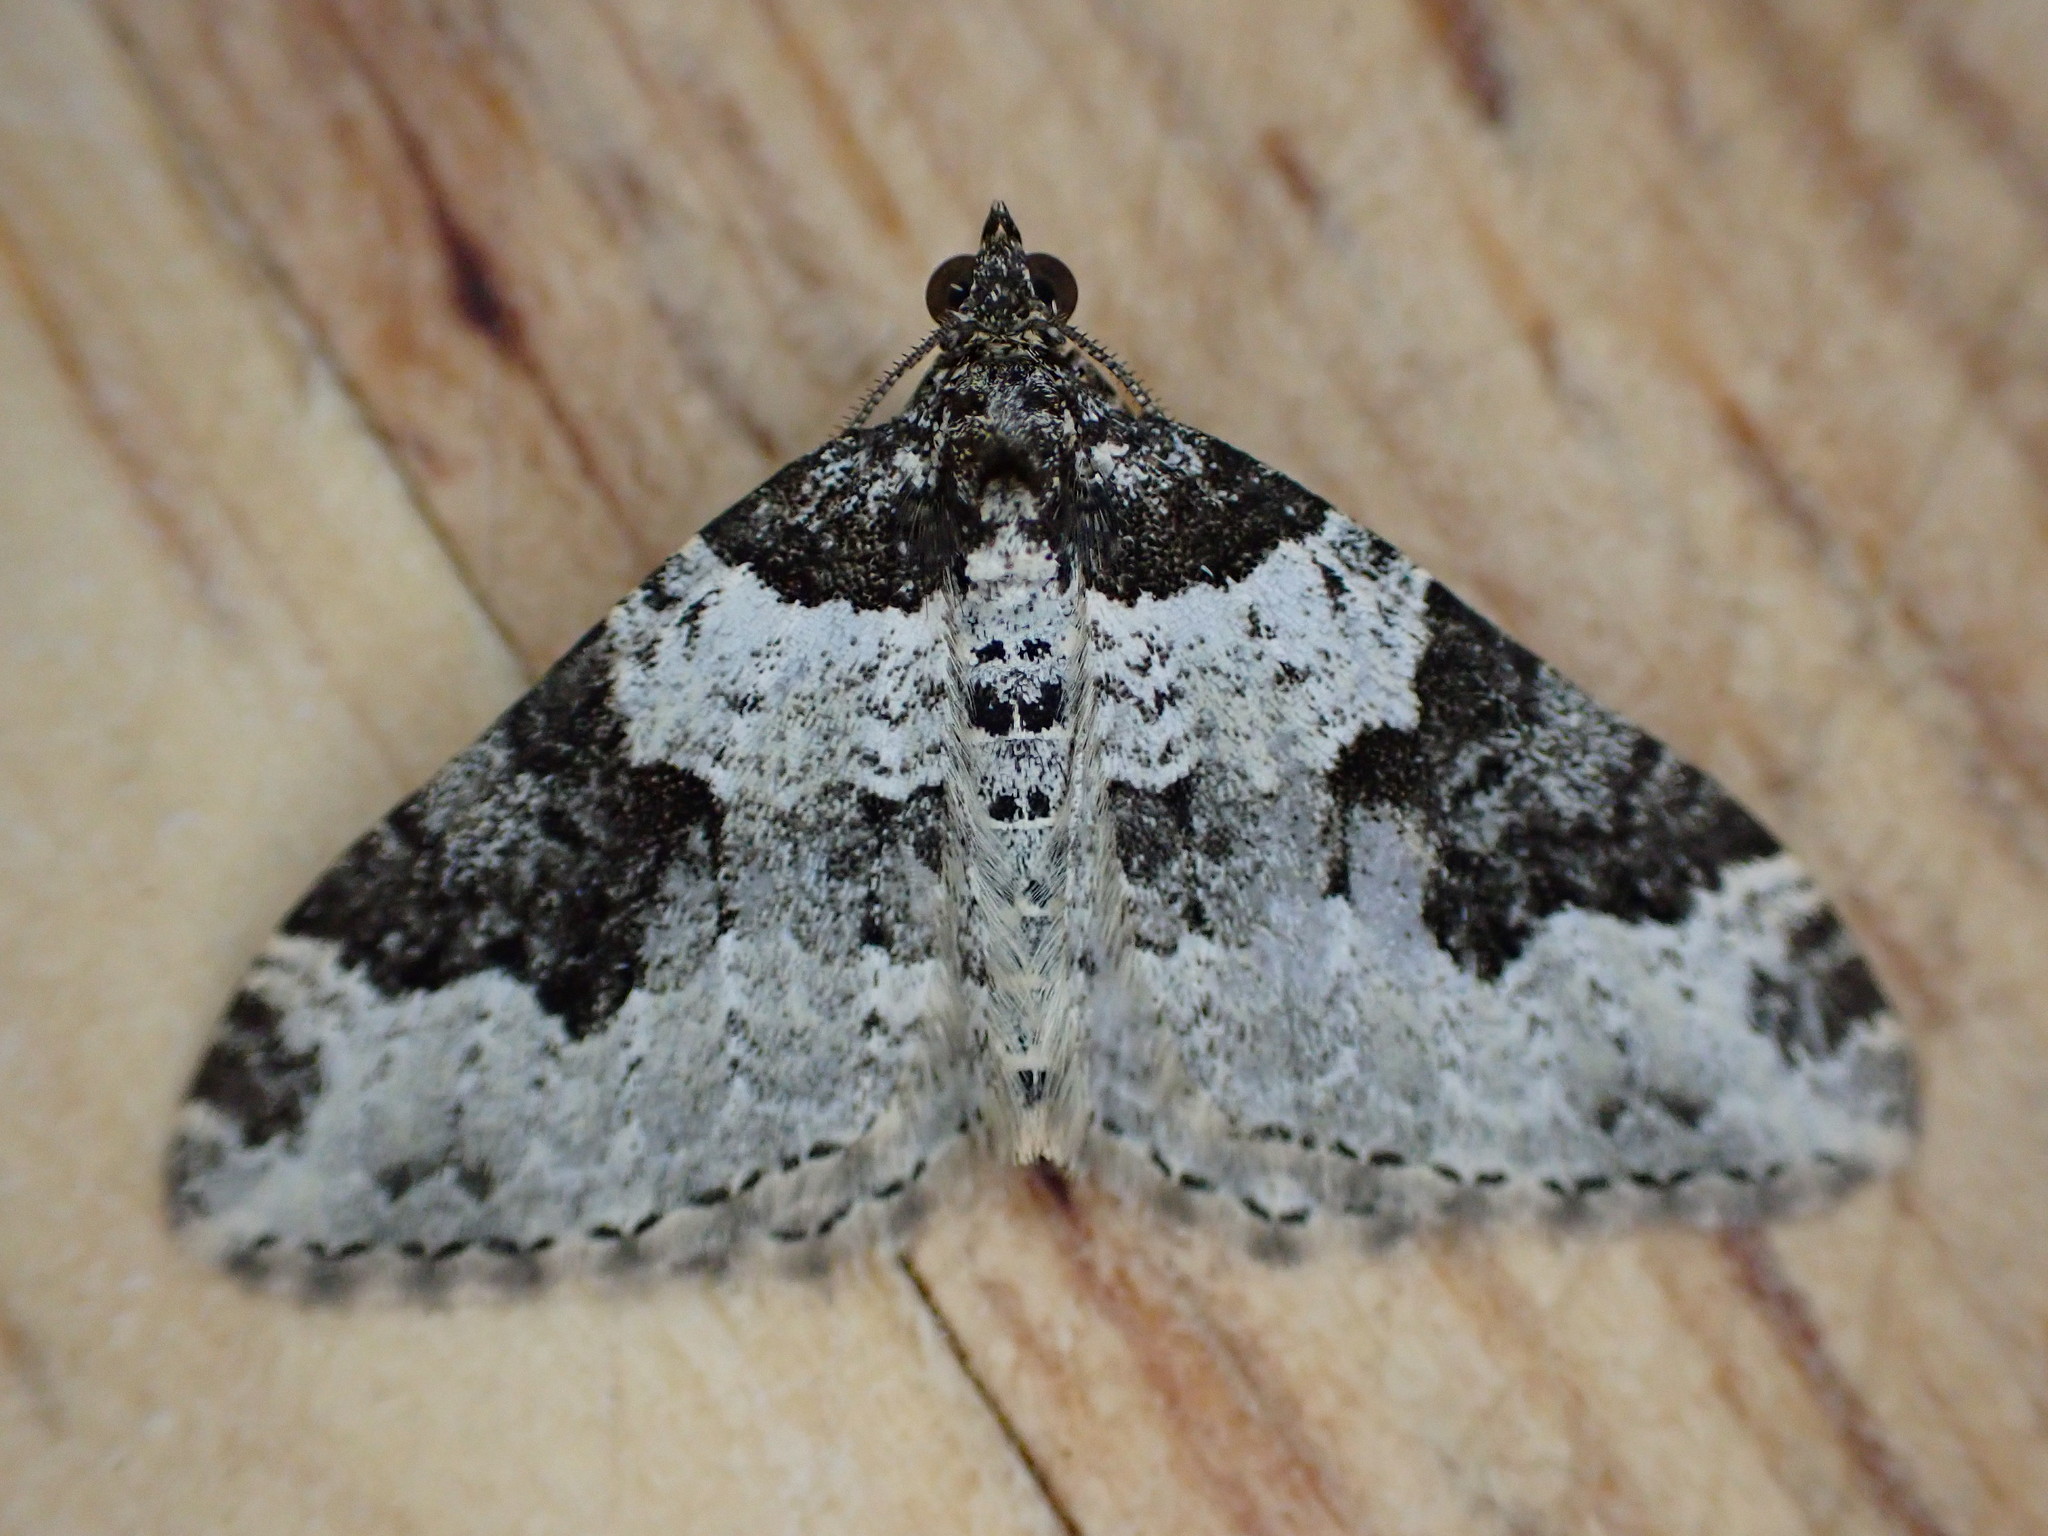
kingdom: Animalia
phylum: Arthropoda
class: Insecta
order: Lepidoptera
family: Geometridae
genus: Xanthorhoe
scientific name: Xanthorhoe fluctuata
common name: Garden carpet
